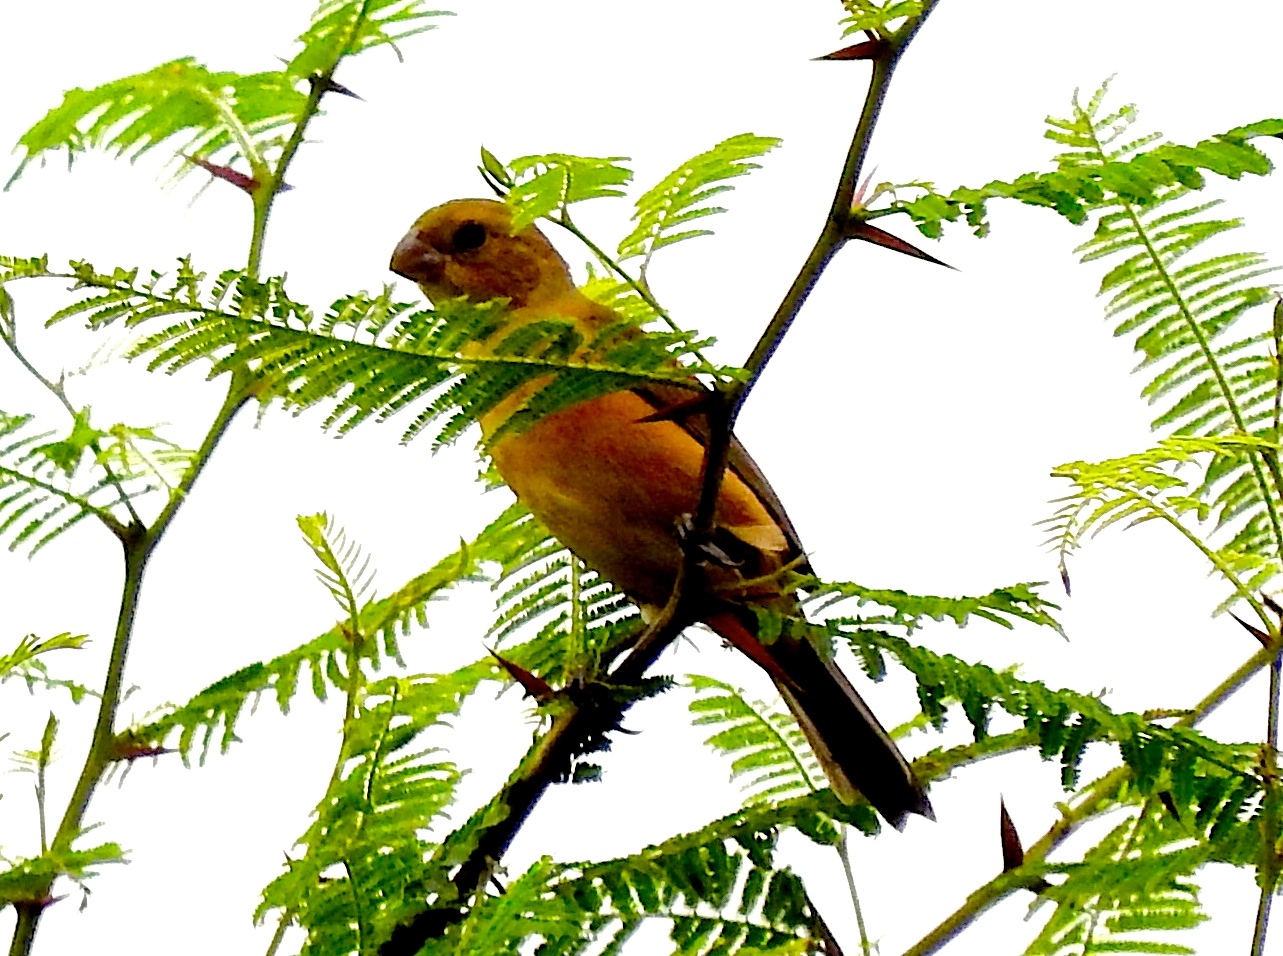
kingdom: Animalia
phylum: Chordata
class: Aves
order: Passeriformes
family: Thraupidae
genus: Sporophila
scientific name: Sporophila torqueola
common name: White-collared seedeater
